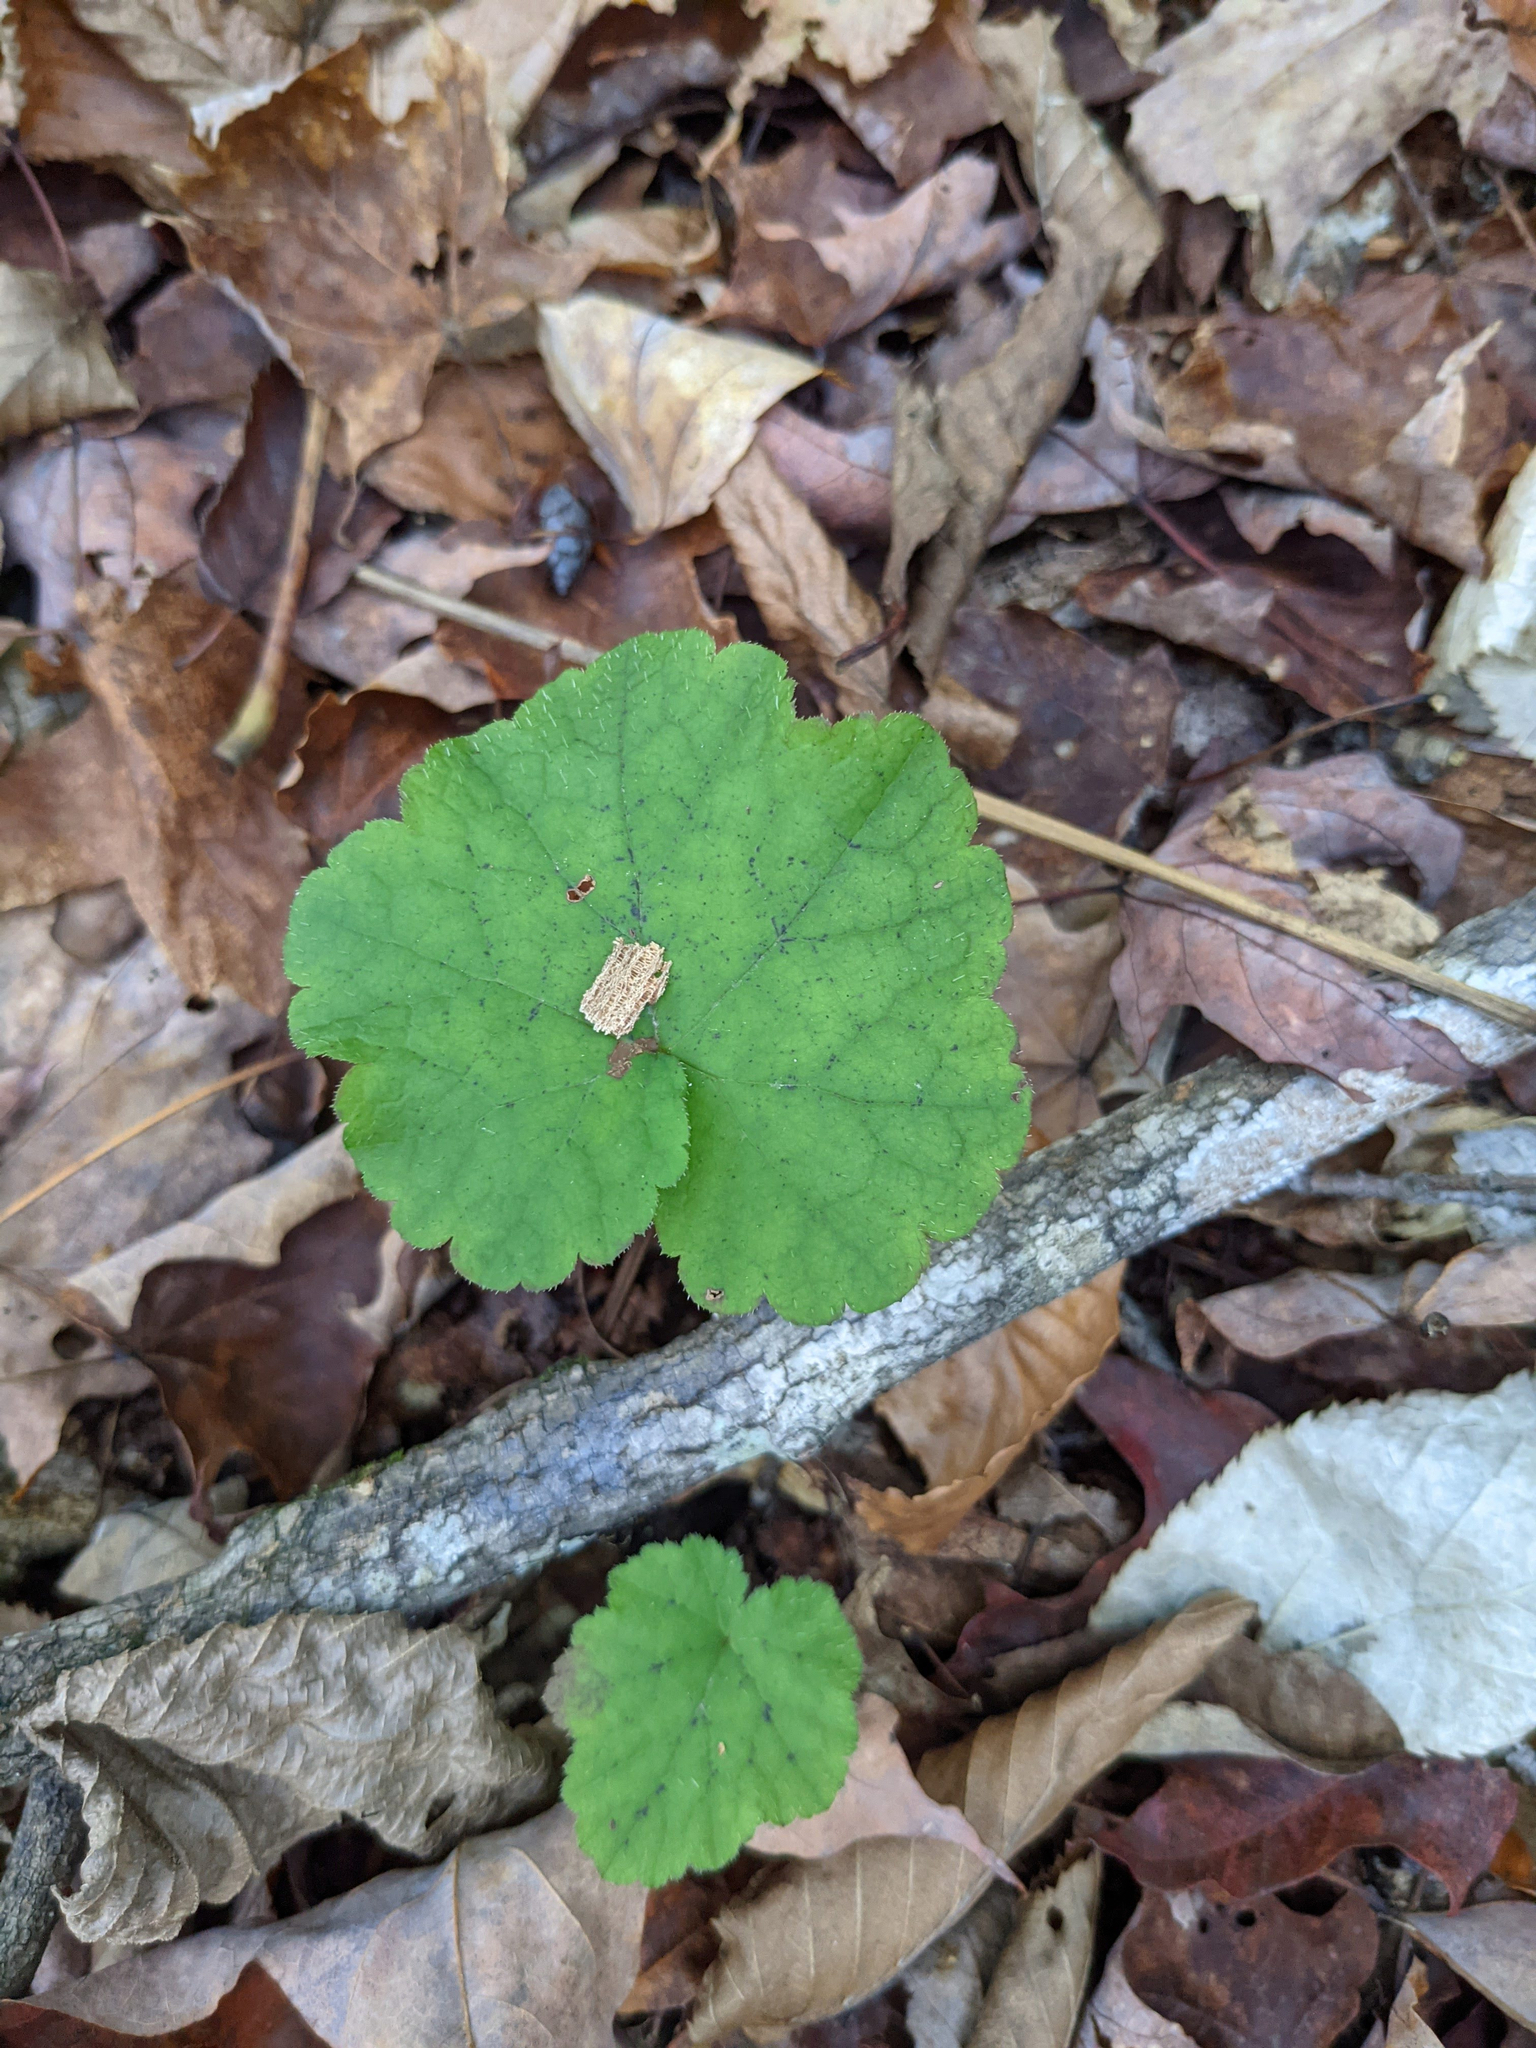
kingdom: Plantae
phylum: Tracheophyta
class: Magnoliopsida
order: Saxifragales
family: Saxifragaceae
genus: Tiarella
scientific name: Tiarella stolonifera
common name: Stoloniferous foamflower
